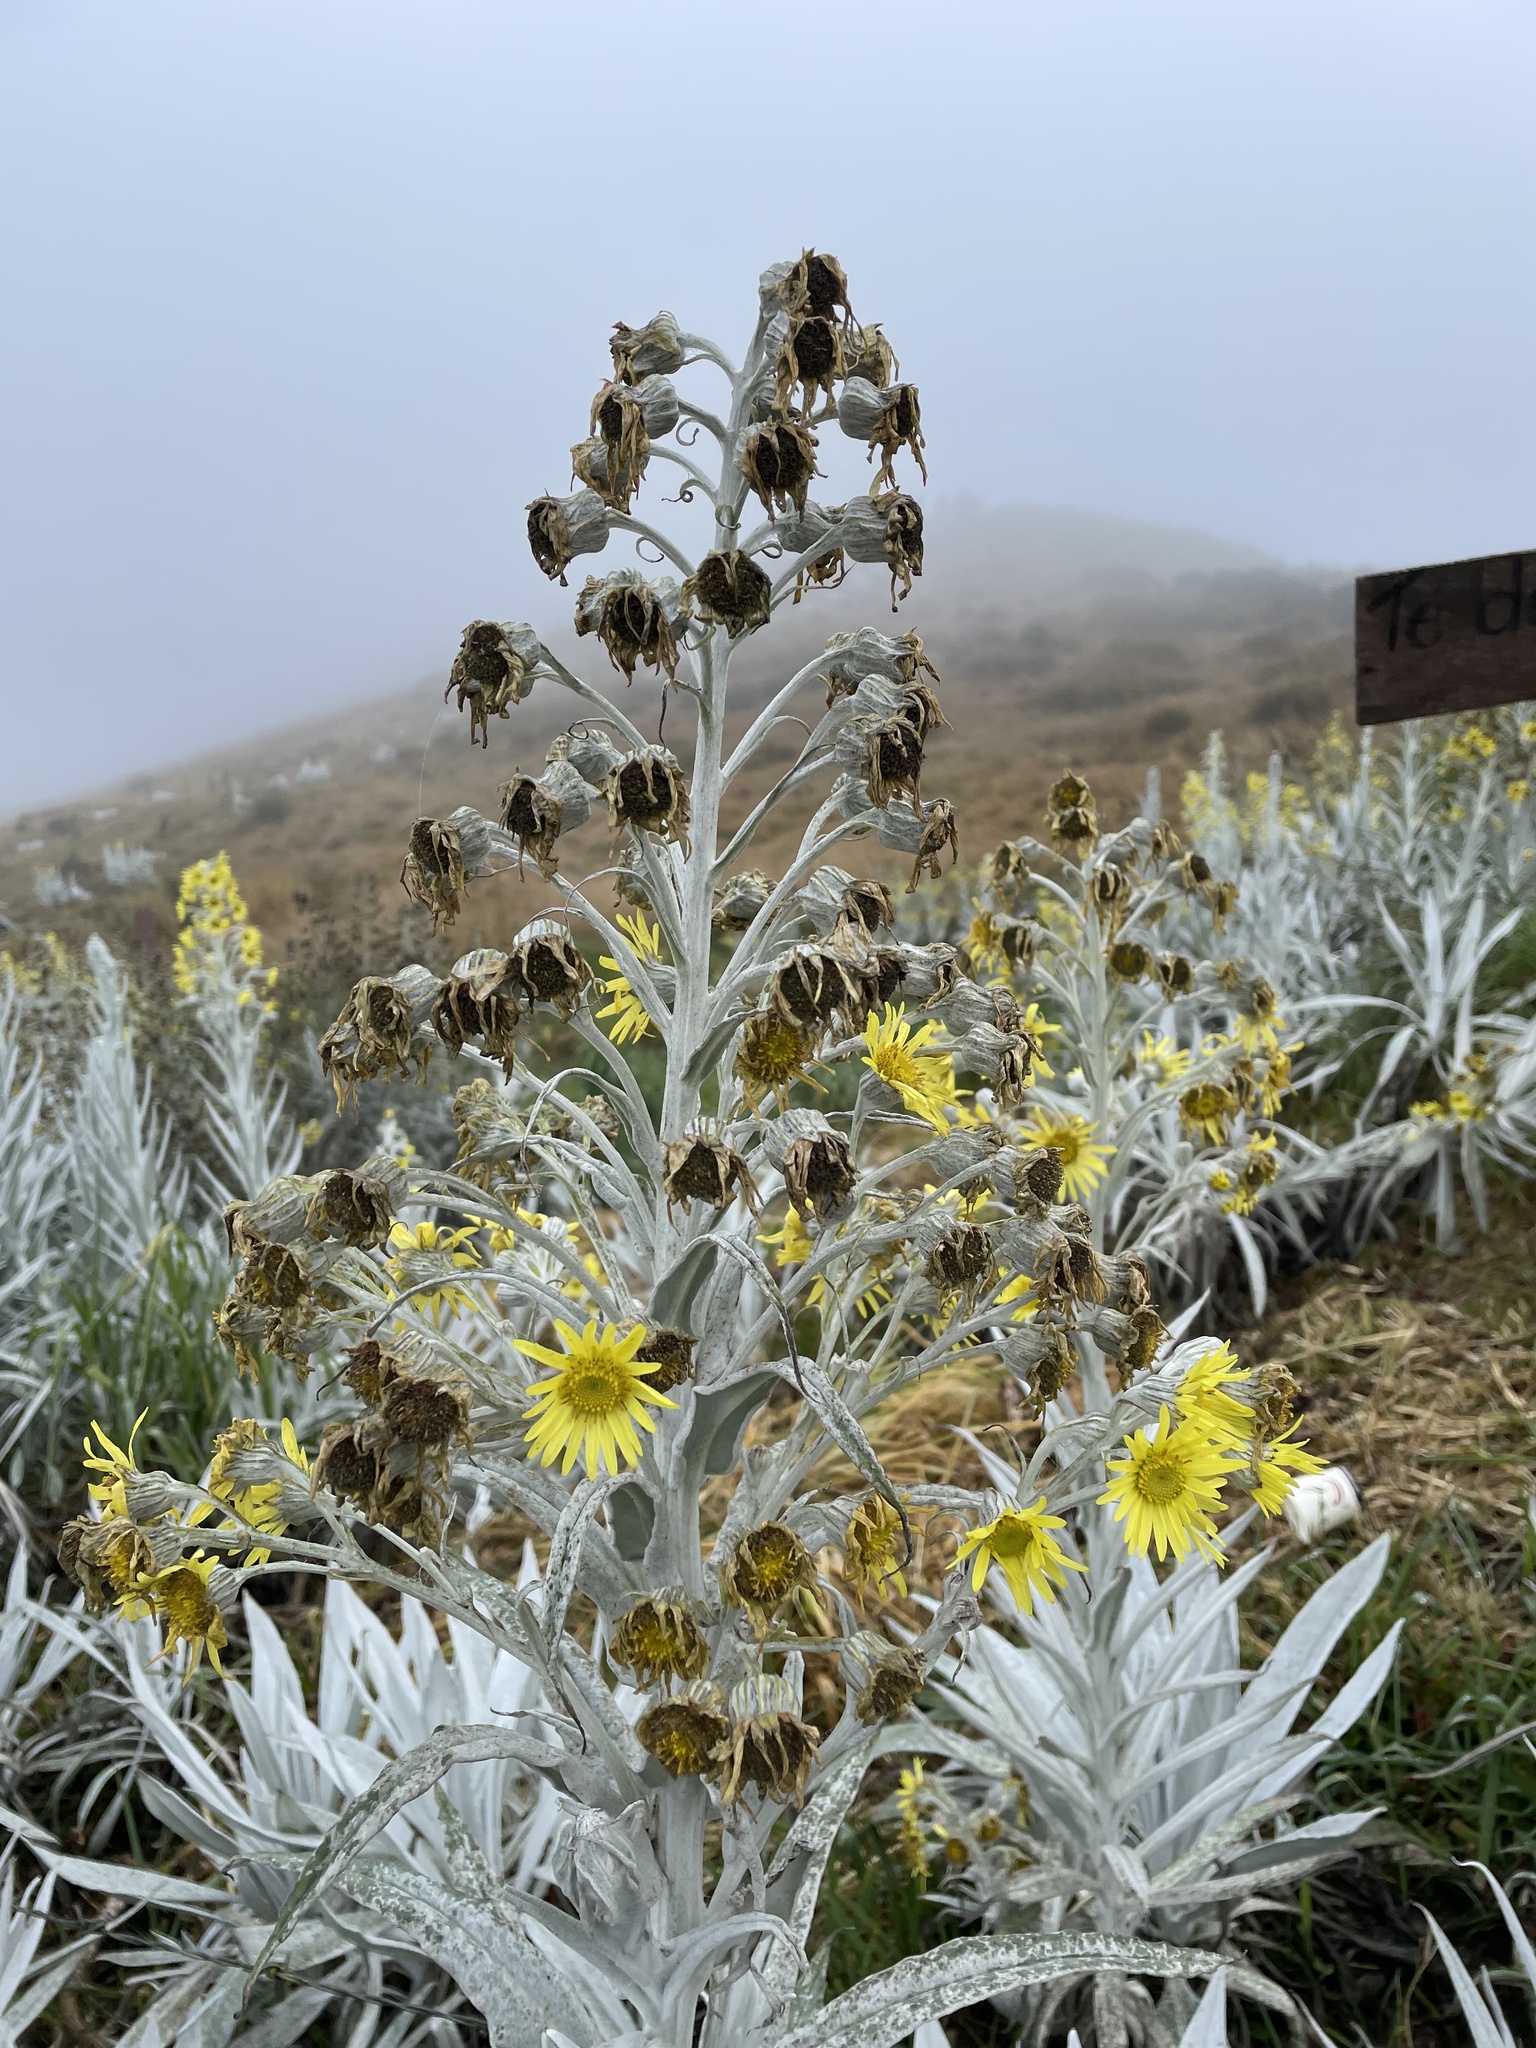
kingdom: Plantae
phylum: Tracheophyta
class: Magnoliopsida
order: Asterales
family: Asteraceae
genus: Senecio
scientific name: Senecio niveoaureus
